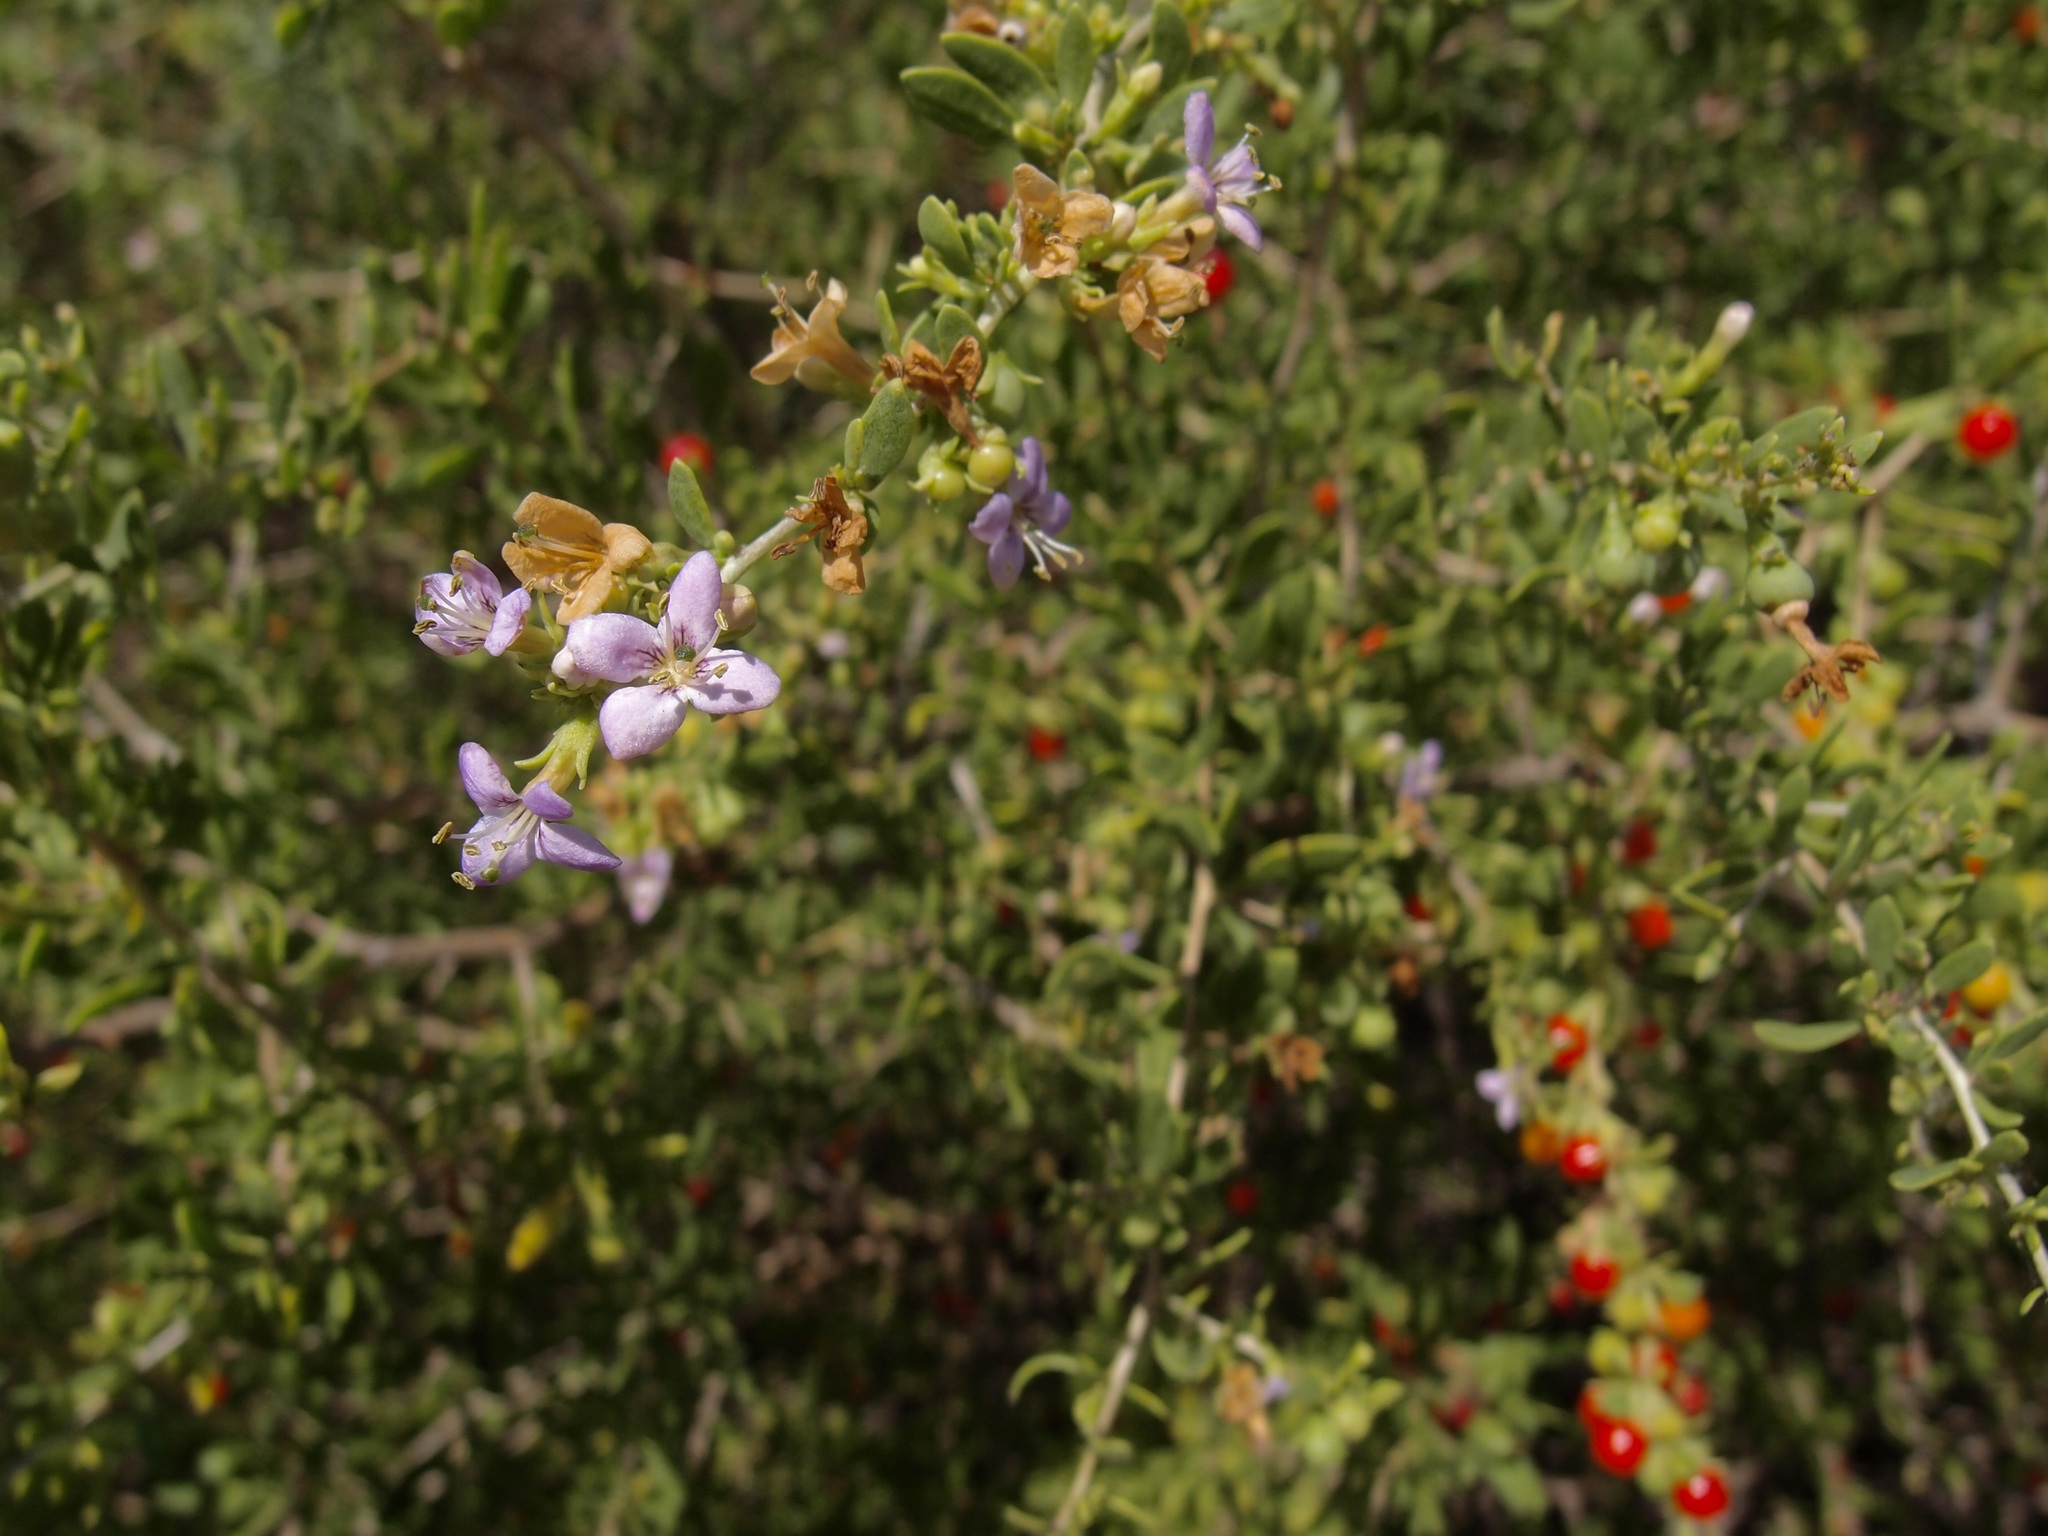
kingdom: Plantae
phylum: Tracheophyta
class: Magnoliopsida
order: Solanales
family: Solanaceae
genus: Lycium
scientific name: Lycium brevipes
